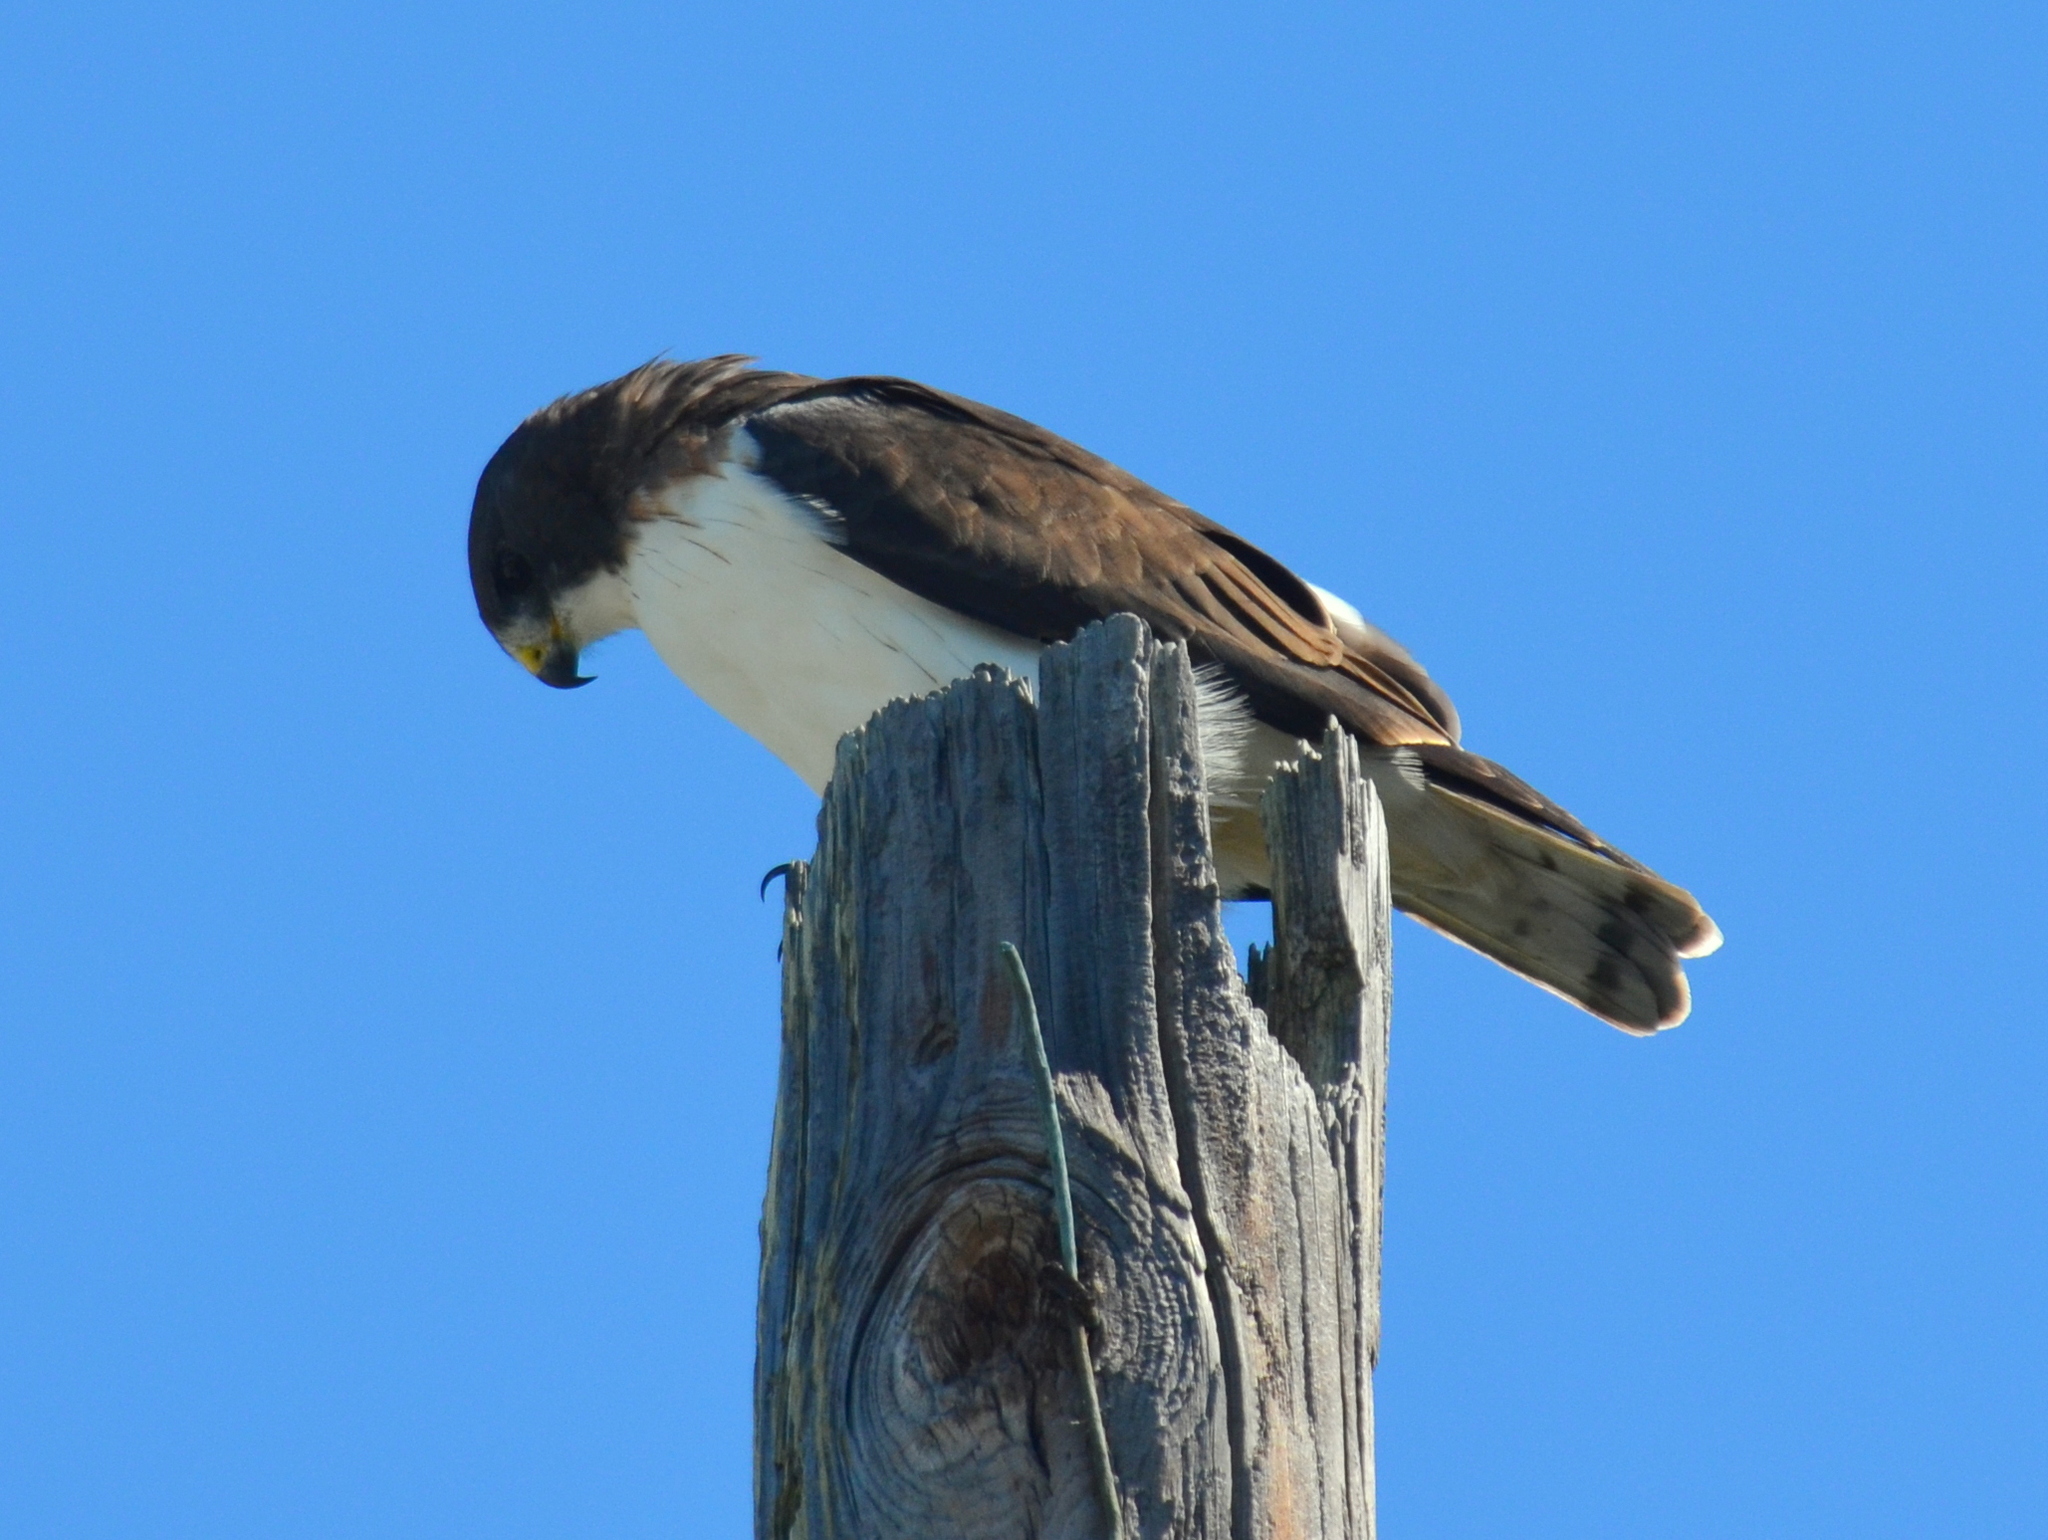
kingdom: Animalia
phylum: Chordata
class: Aves
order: Accipitriformes
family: Accipitridae
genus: Buteo
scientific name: Buteo brachyurus
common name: Short-tailed hawk
